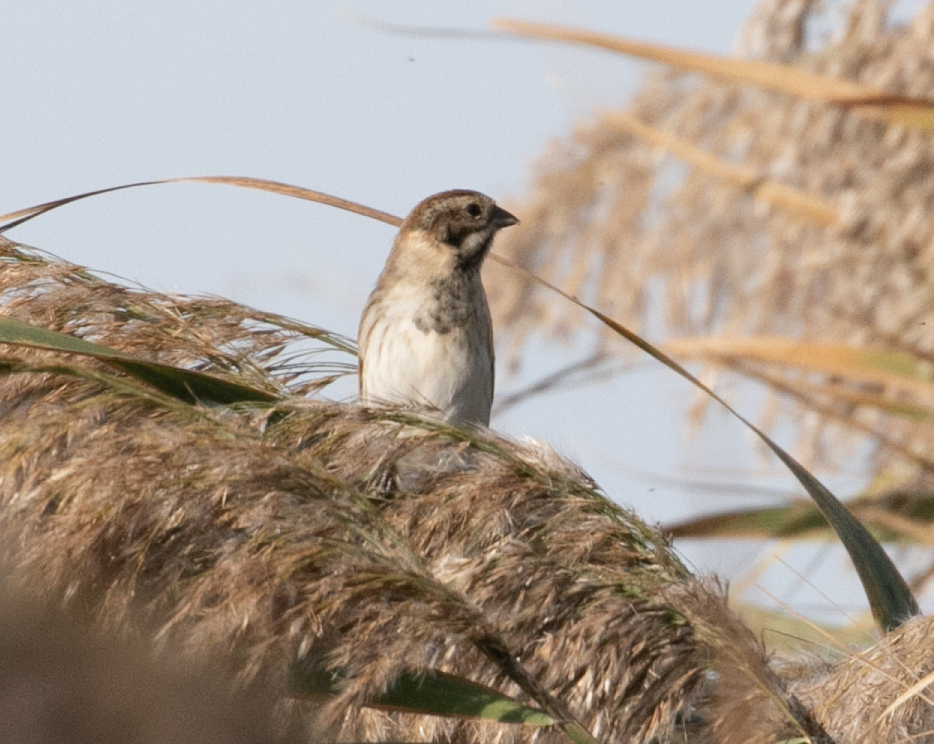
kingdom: Animalia
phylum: Chordata
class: Aves
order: Passeriformes
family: Emberizidae
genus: Emberiza
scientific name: Emberiza schoeniclus
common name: Reed bunting
